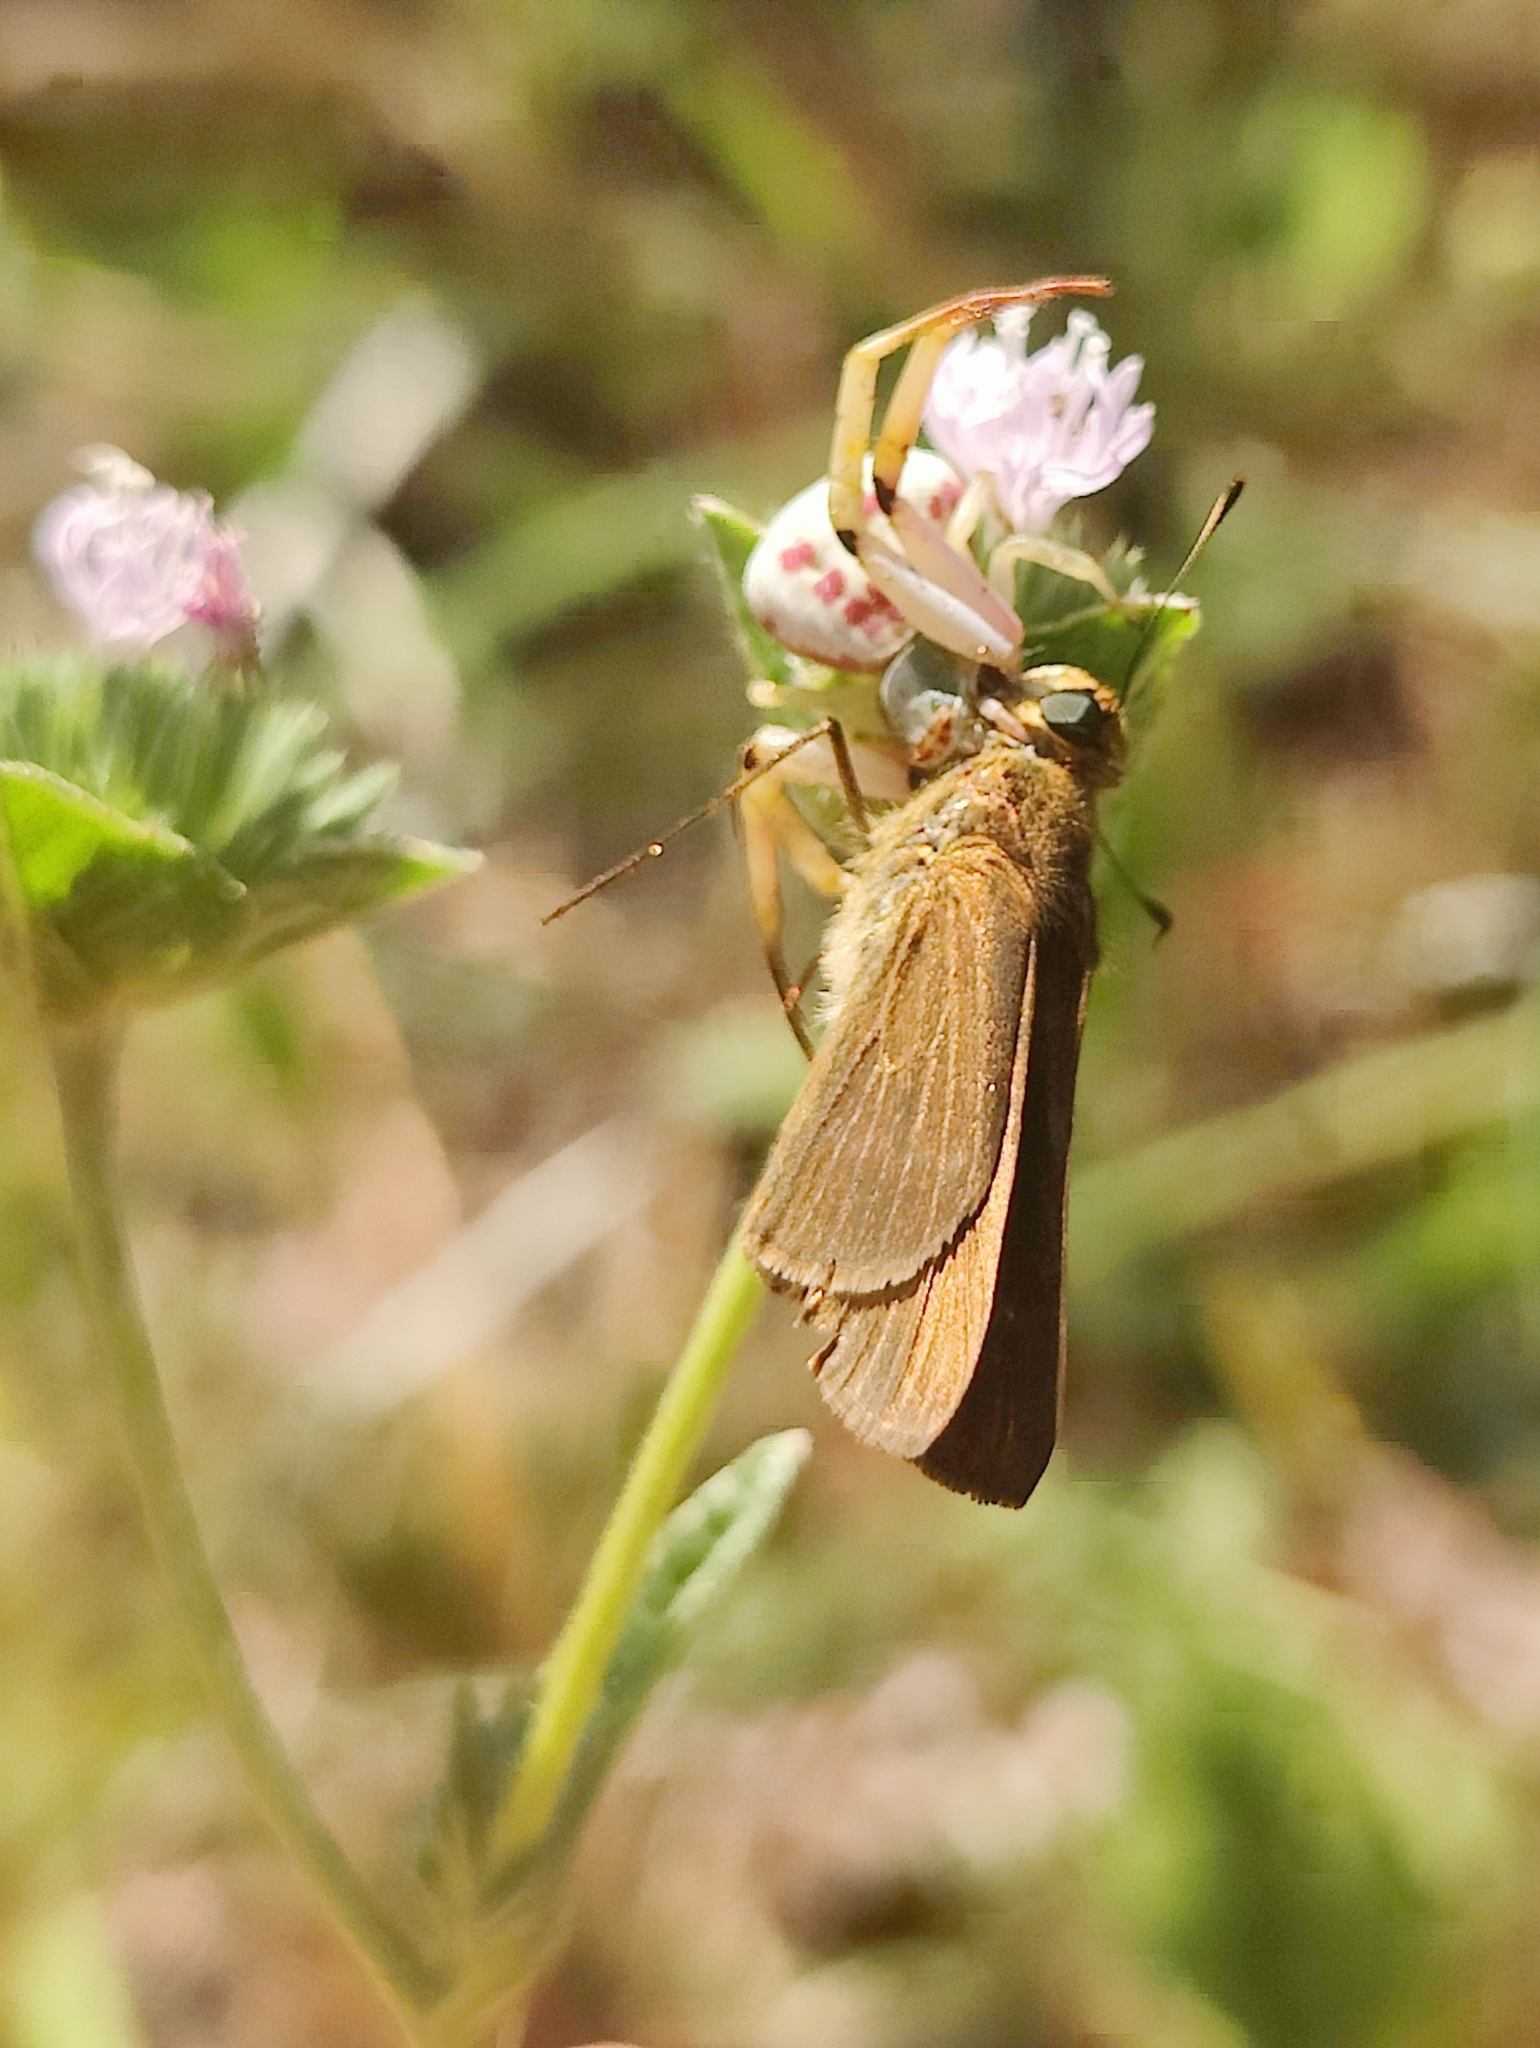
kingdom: Animalia
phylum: Arthropoda
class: Arachnida
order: Araneae
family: Thomisidae
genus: Misumenoides
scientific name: Misumenoides formosipes
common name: White-banded crab spider
